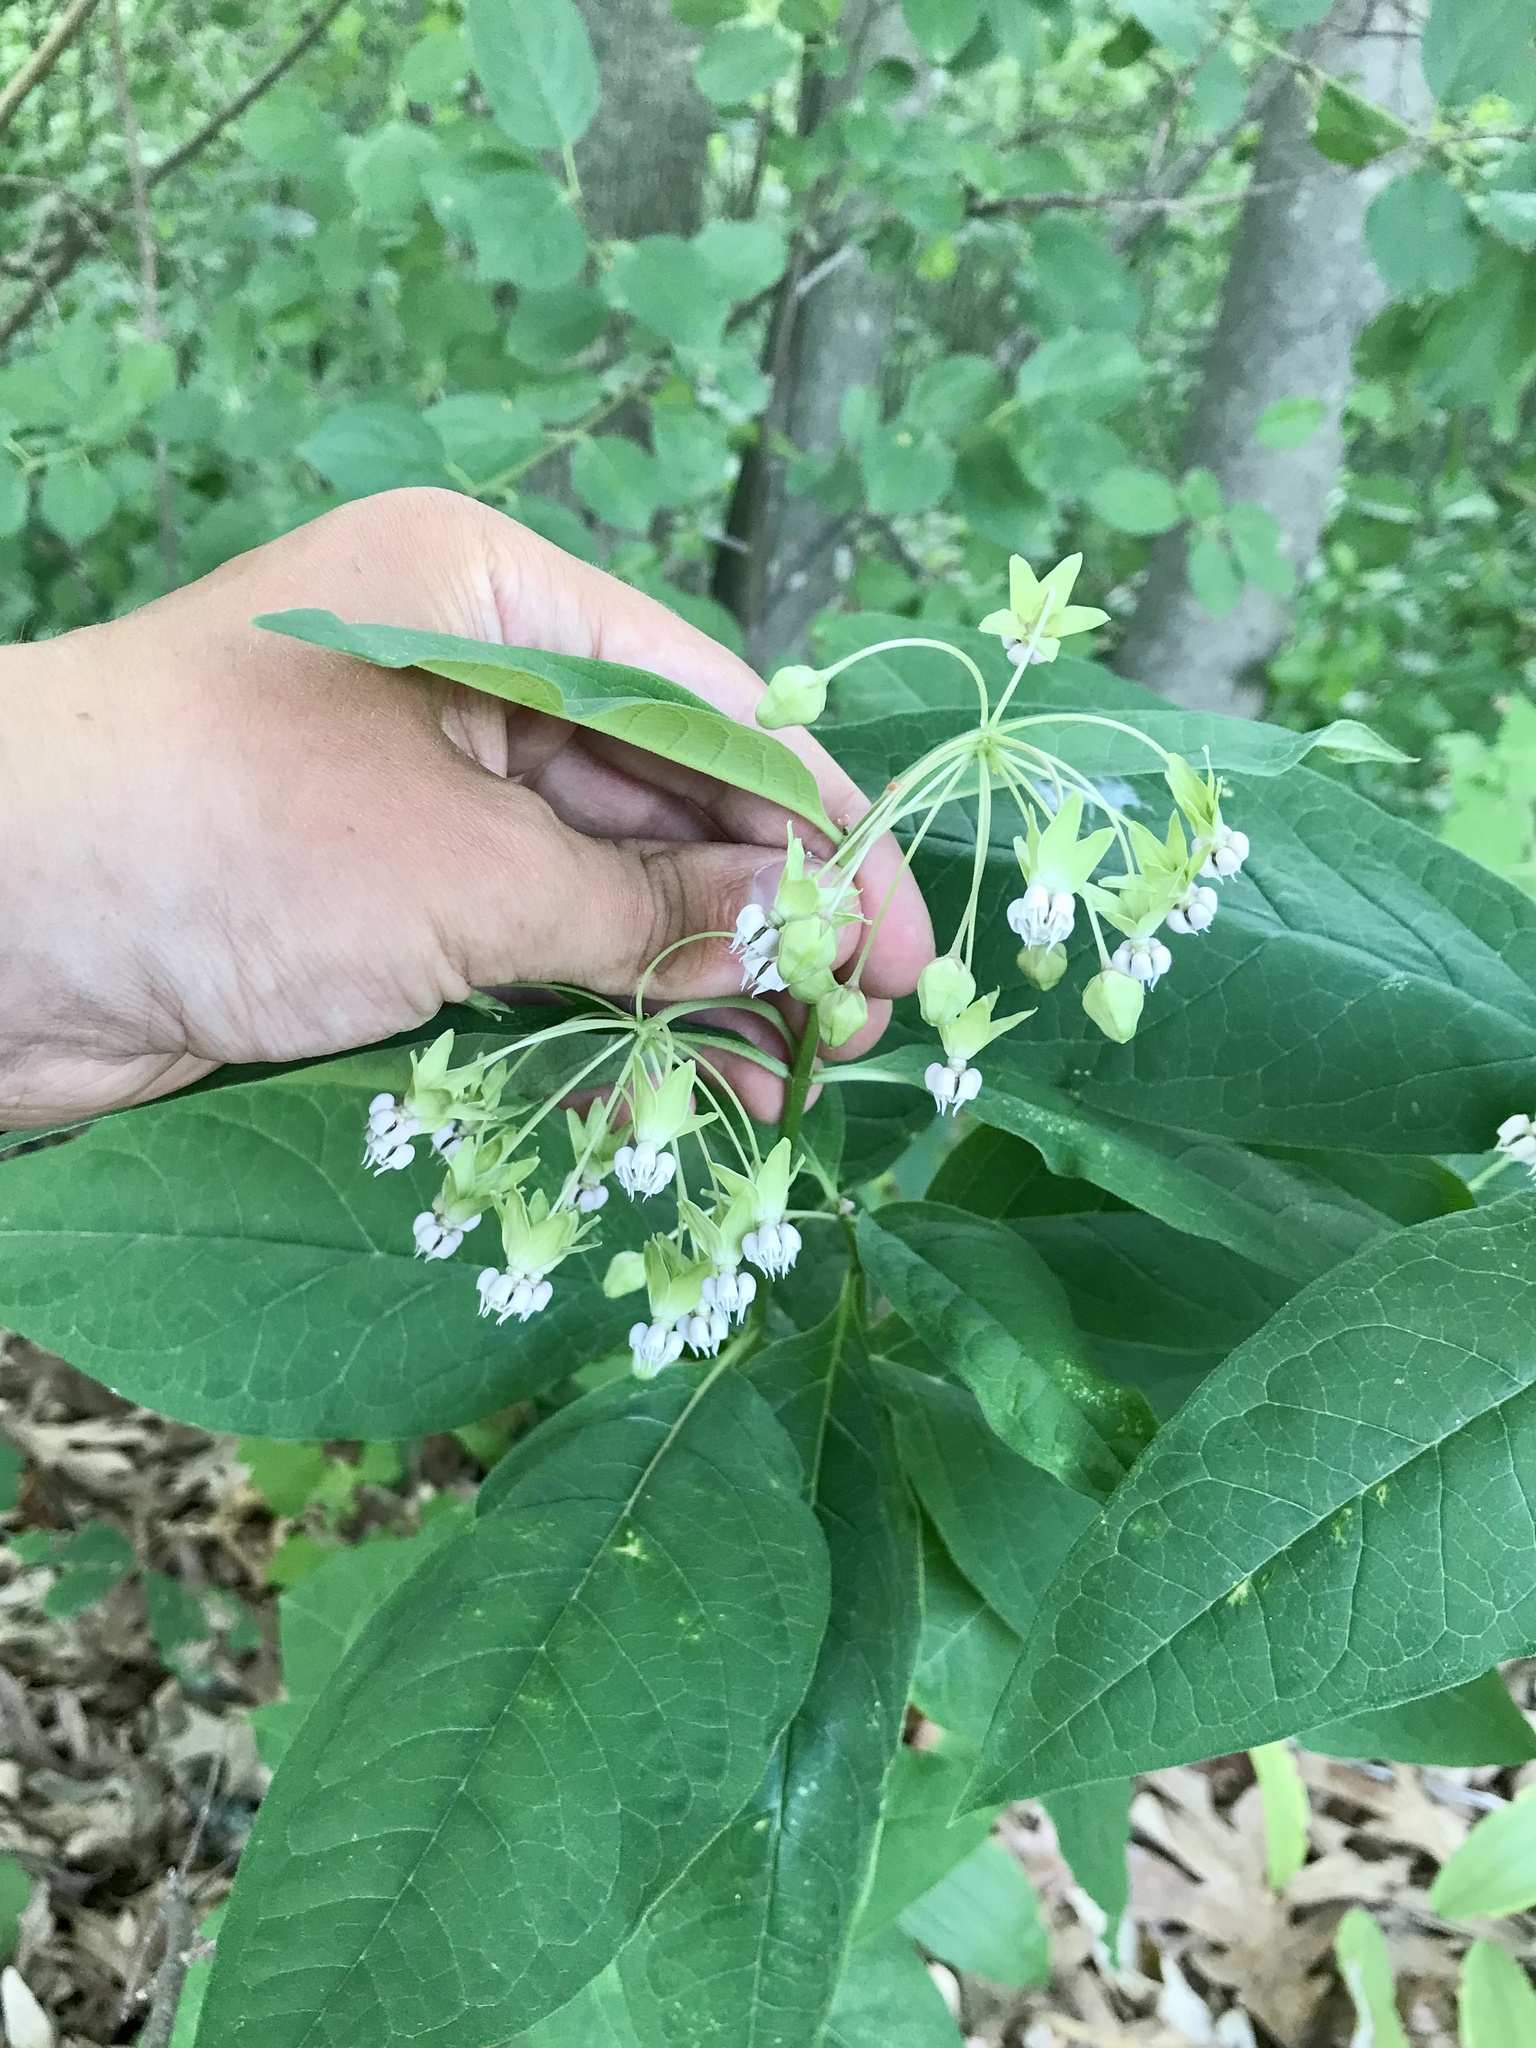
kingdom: Plantae
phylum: Tracheophyta
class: Magnoliopsida
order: Gentianales
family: Apocynaceae
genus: Asclepias
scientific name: Asclepias exaltata
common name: Poke milkweed
